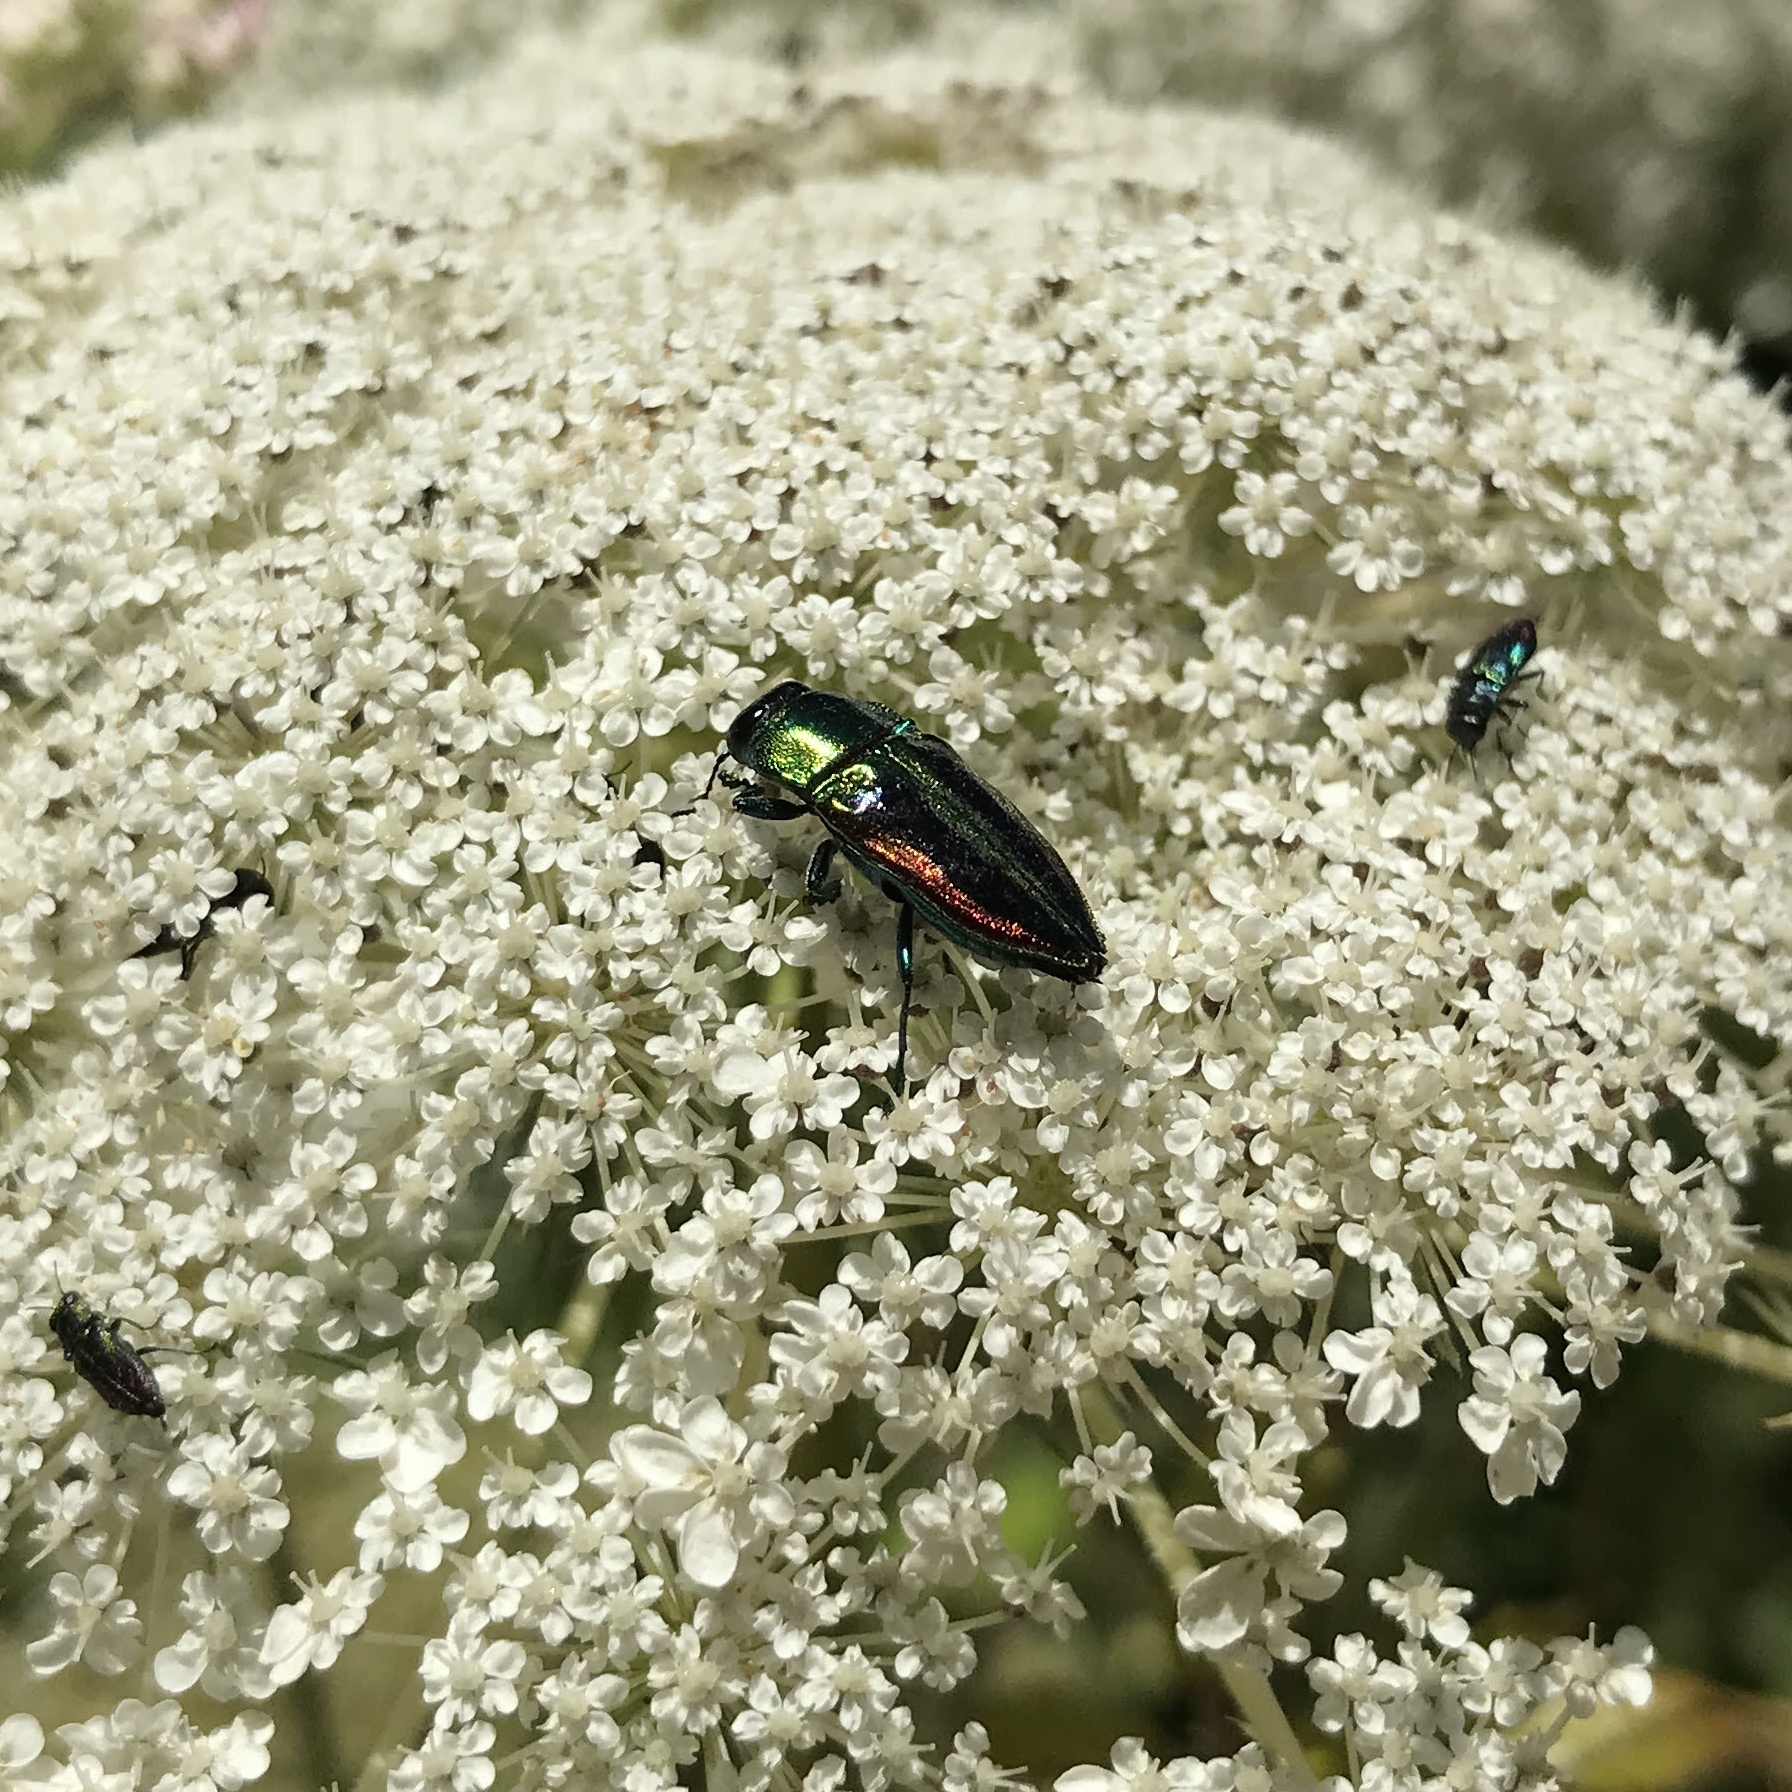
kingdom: Animalia
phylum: Arthropoda
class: Insecta
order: Coleoptera
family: Buprestidae
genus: Cylindrophora
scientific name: Cylindrophora
